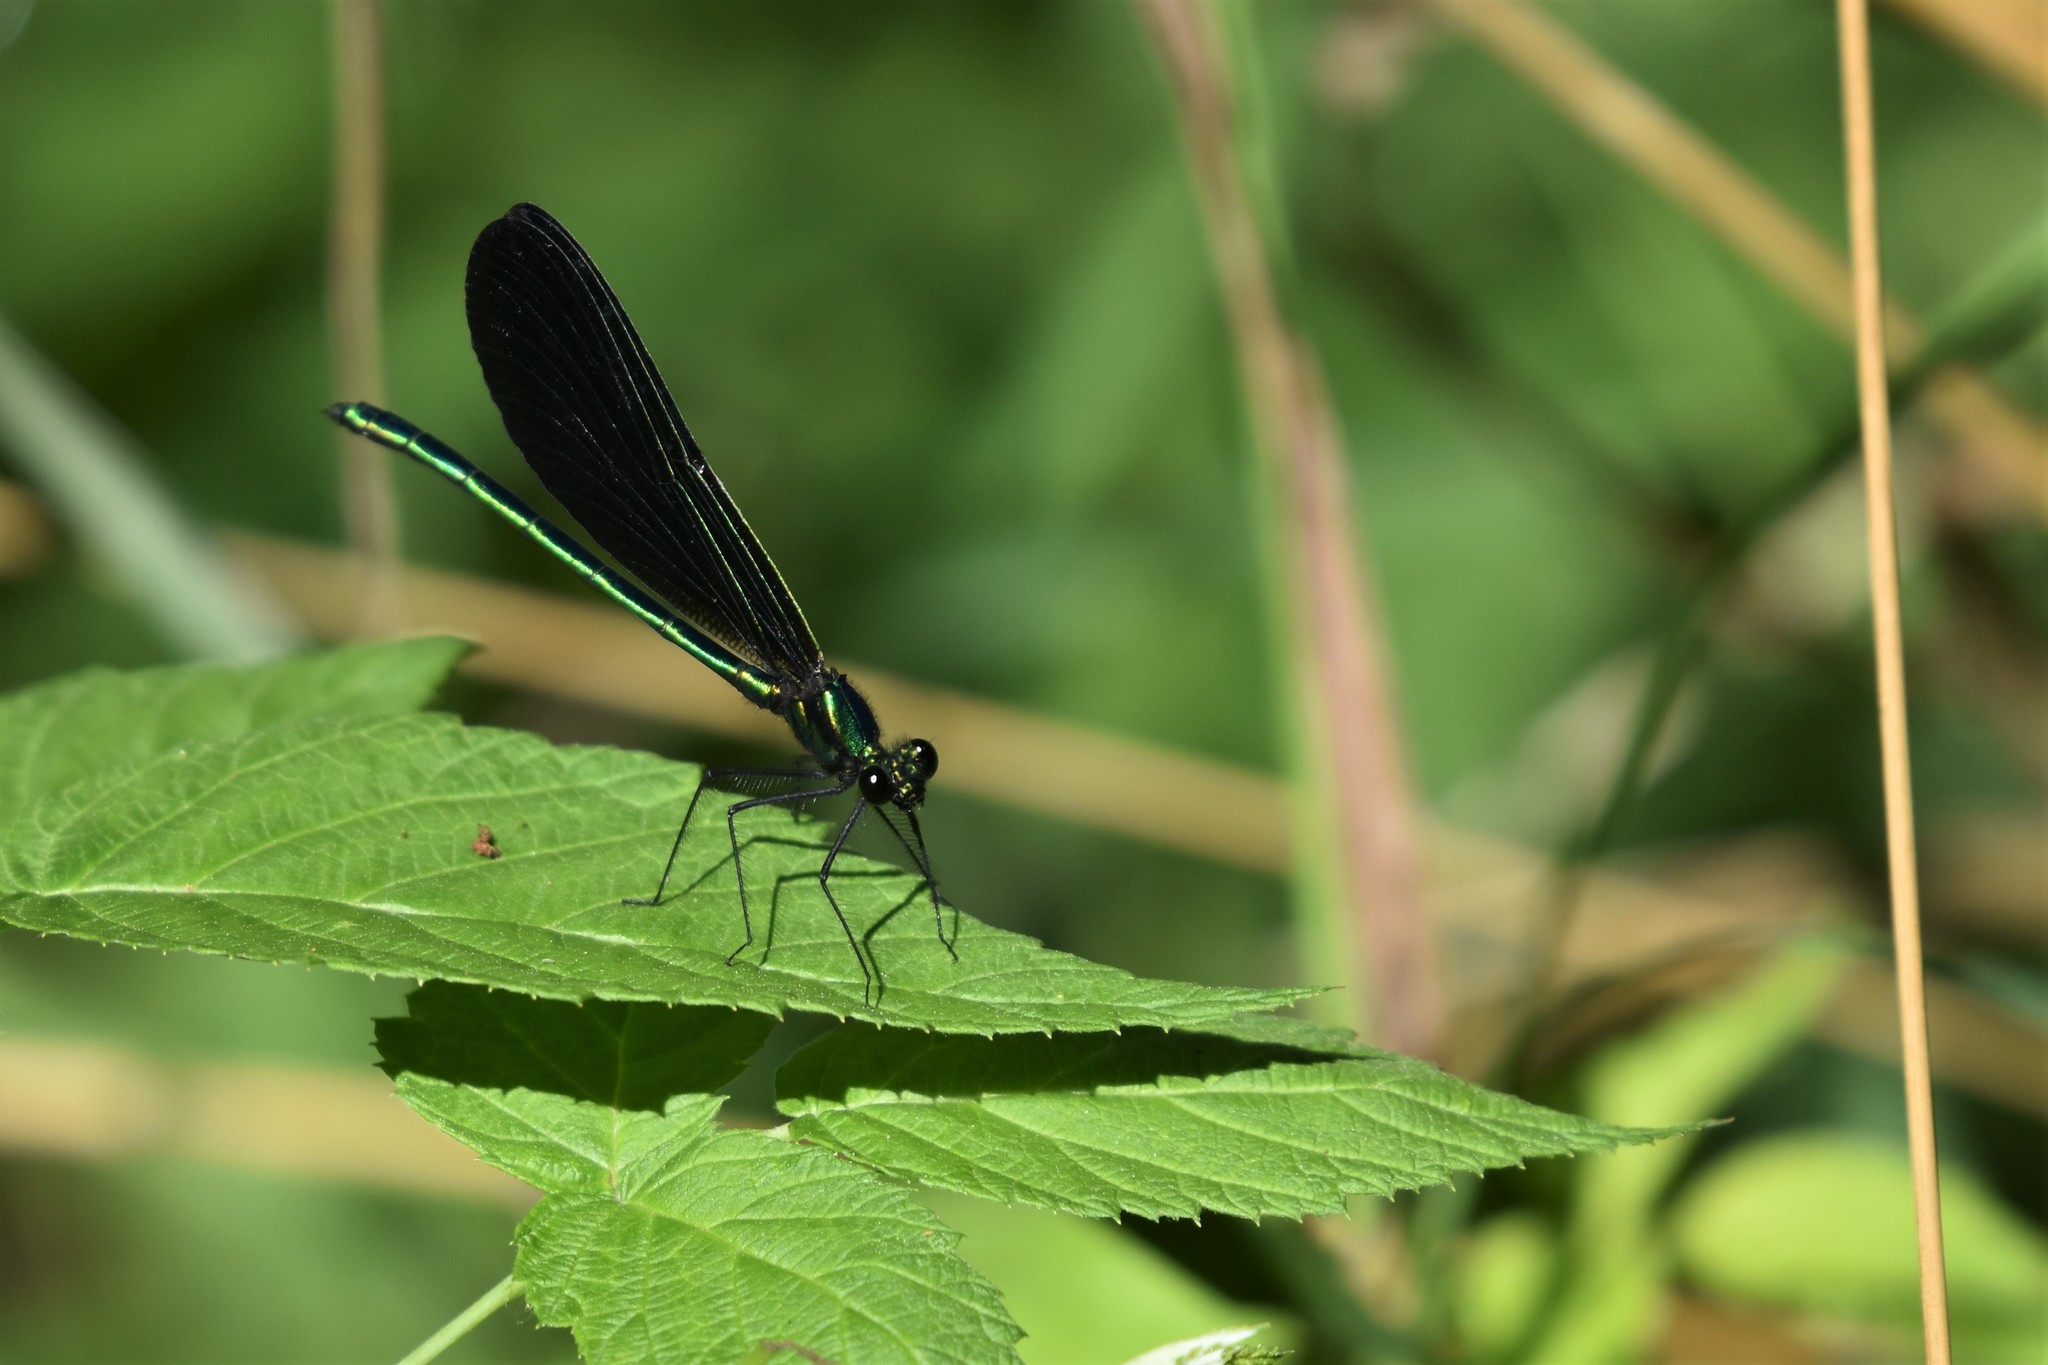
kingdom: Animalia
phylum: Arthropoda
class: Insecta
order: Odonata
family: Calopterygidae
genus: Calopteryx
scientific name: Calopteryx maculata
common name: Ebony jewelwing
